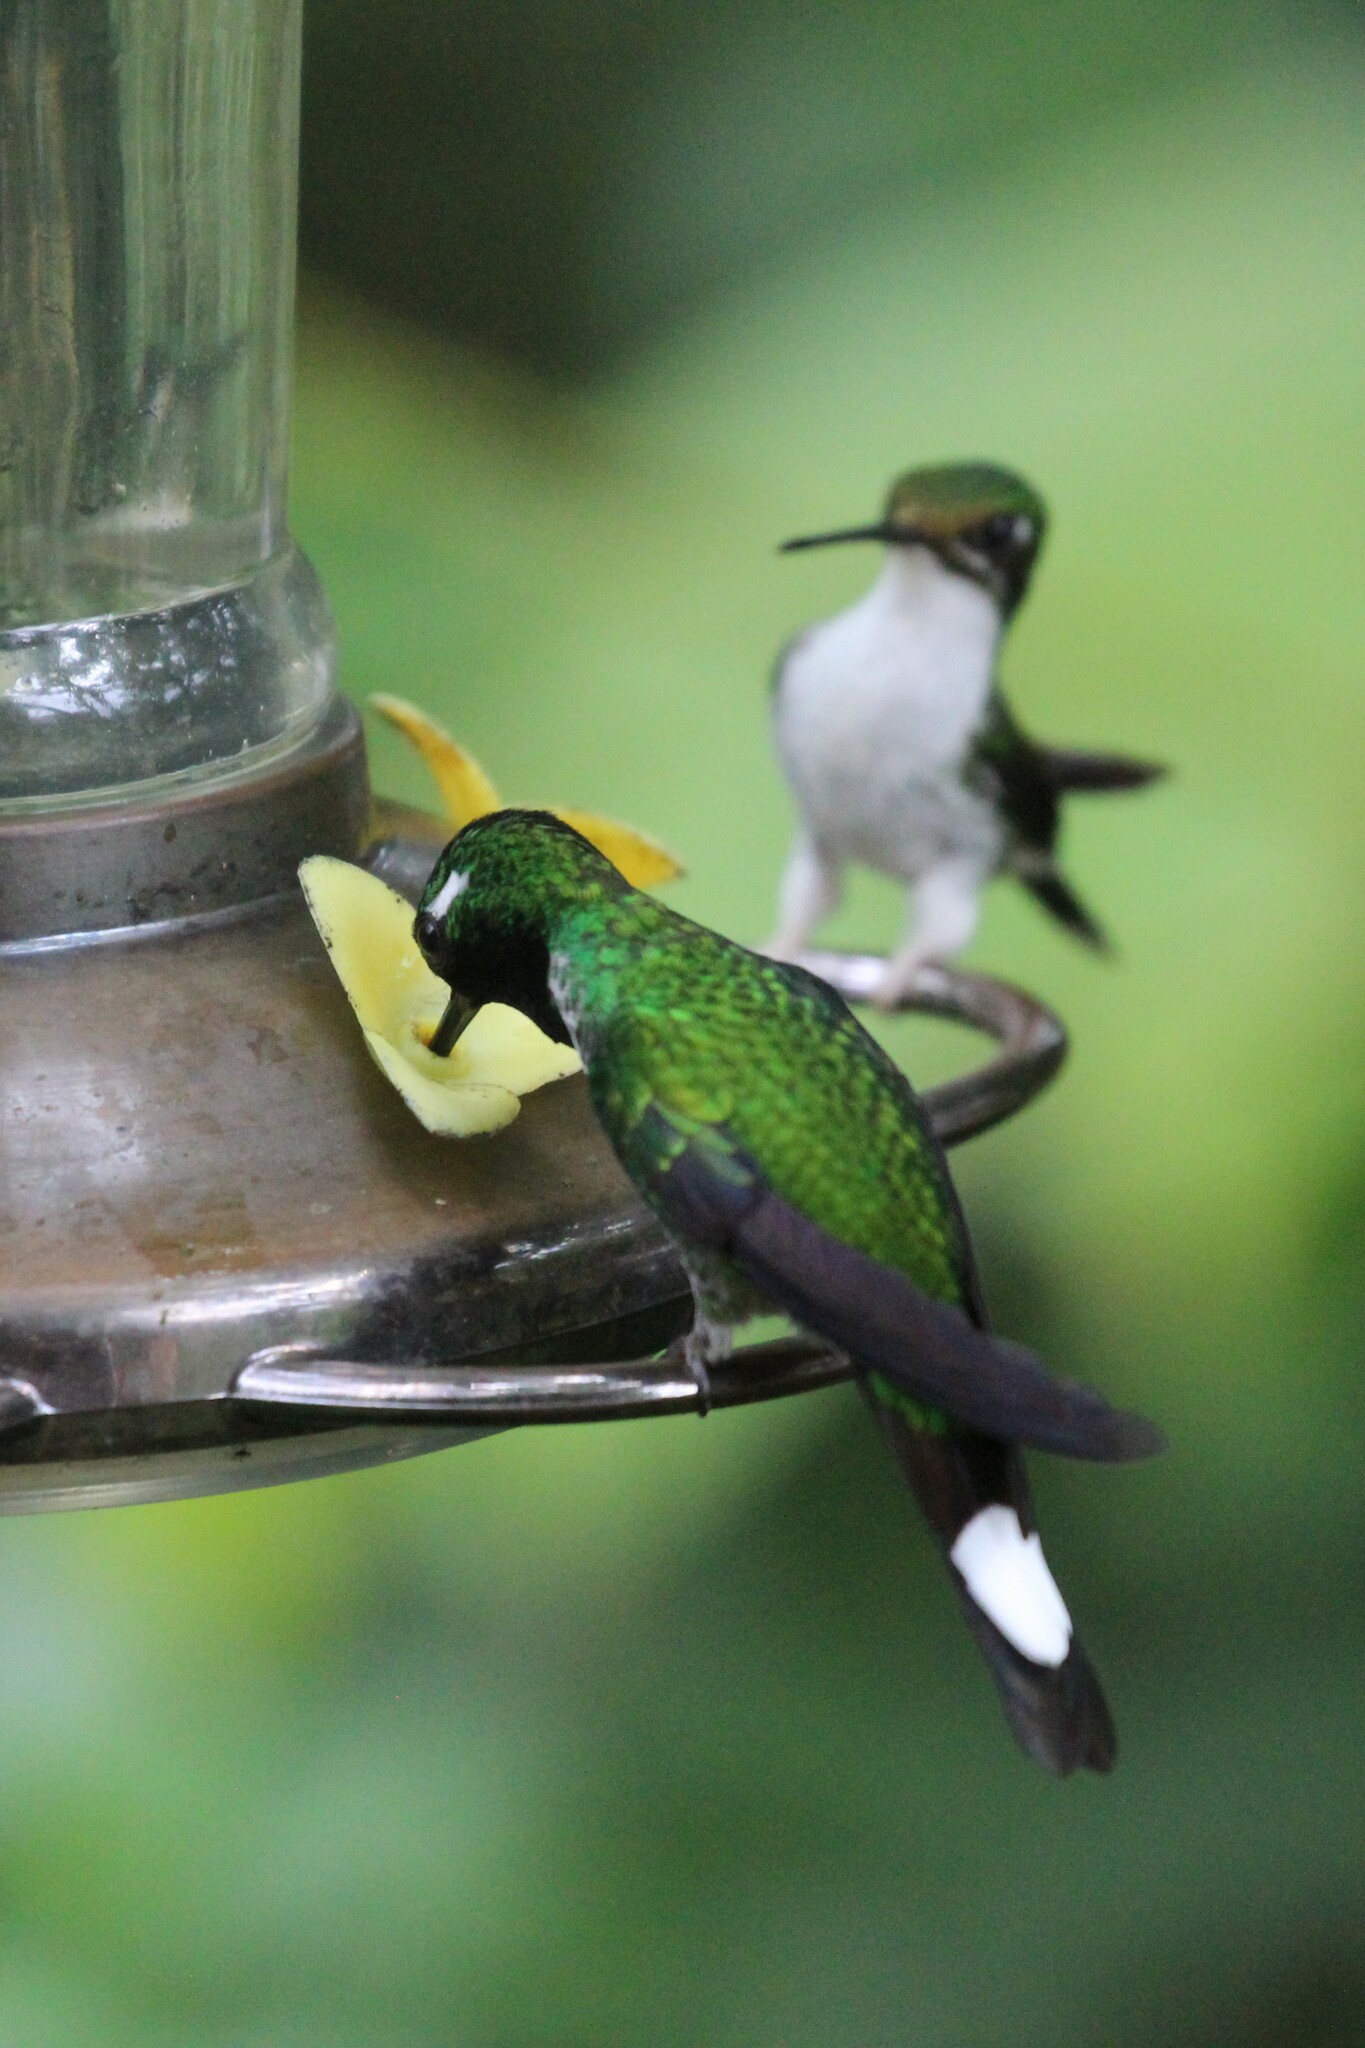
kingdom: Animalia
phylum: Chordata
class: Aves
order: Apodiformes
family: Trochilidae
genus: Urosticte
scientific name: Urosticte benjamini
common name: Purple-bibbed whitetip
